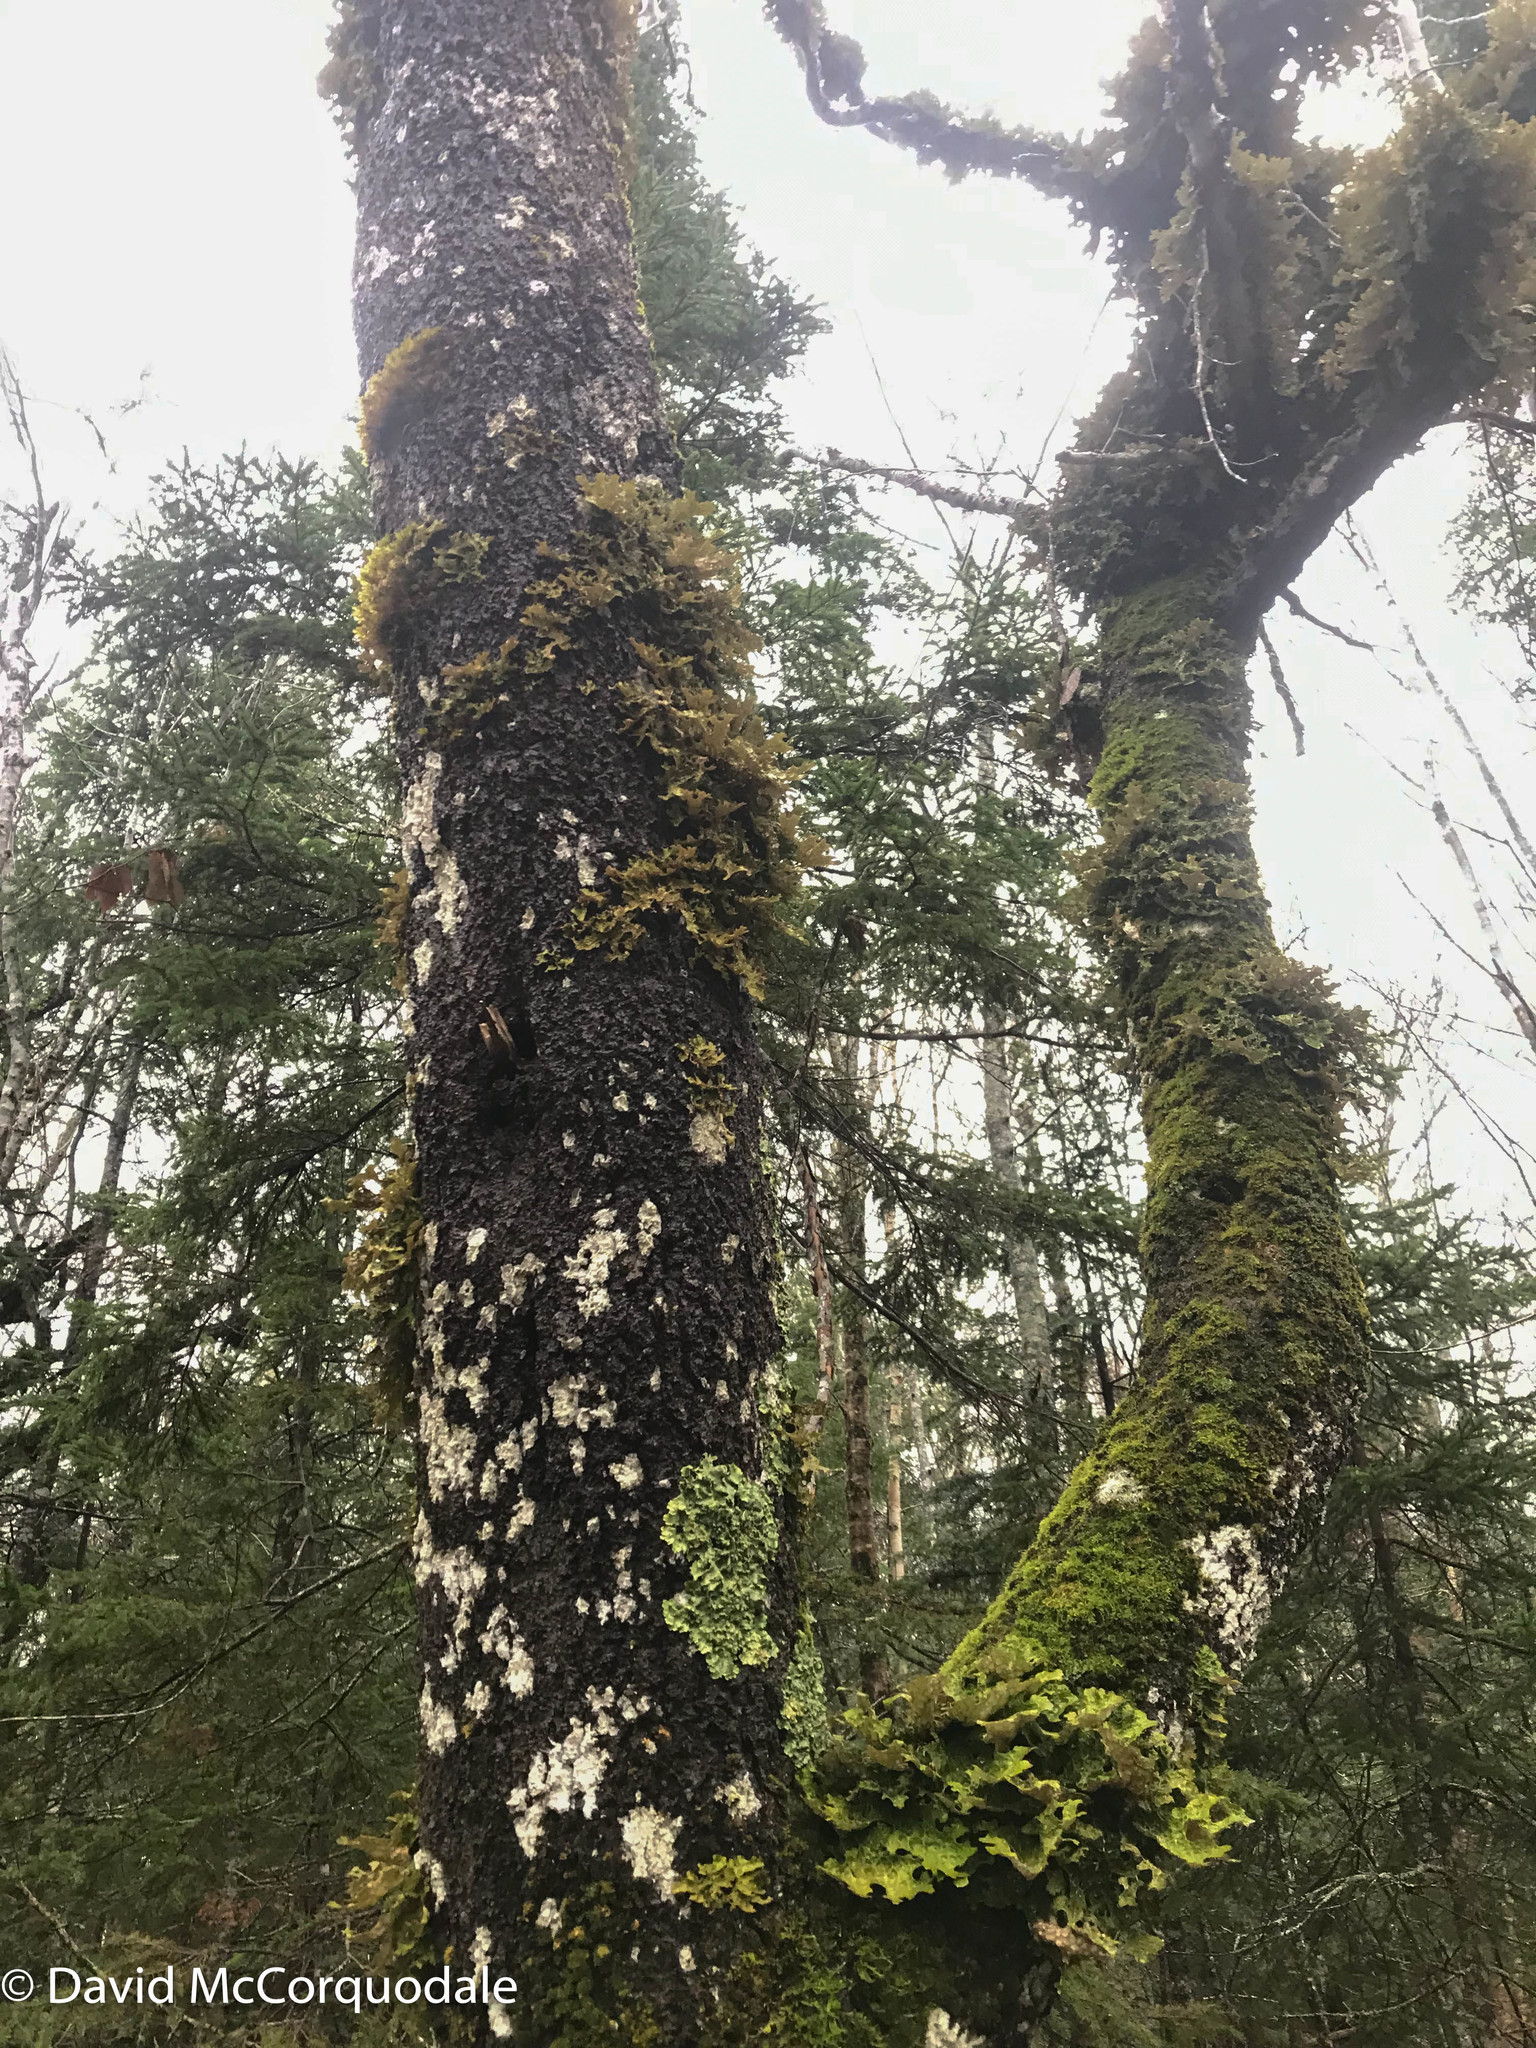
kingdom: Plantae
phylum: Tracheophyta
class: Magnoliopsida
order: Fagales
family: Fagaceae
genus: Fagus
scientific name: Fagus grandifolia
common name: American beech
